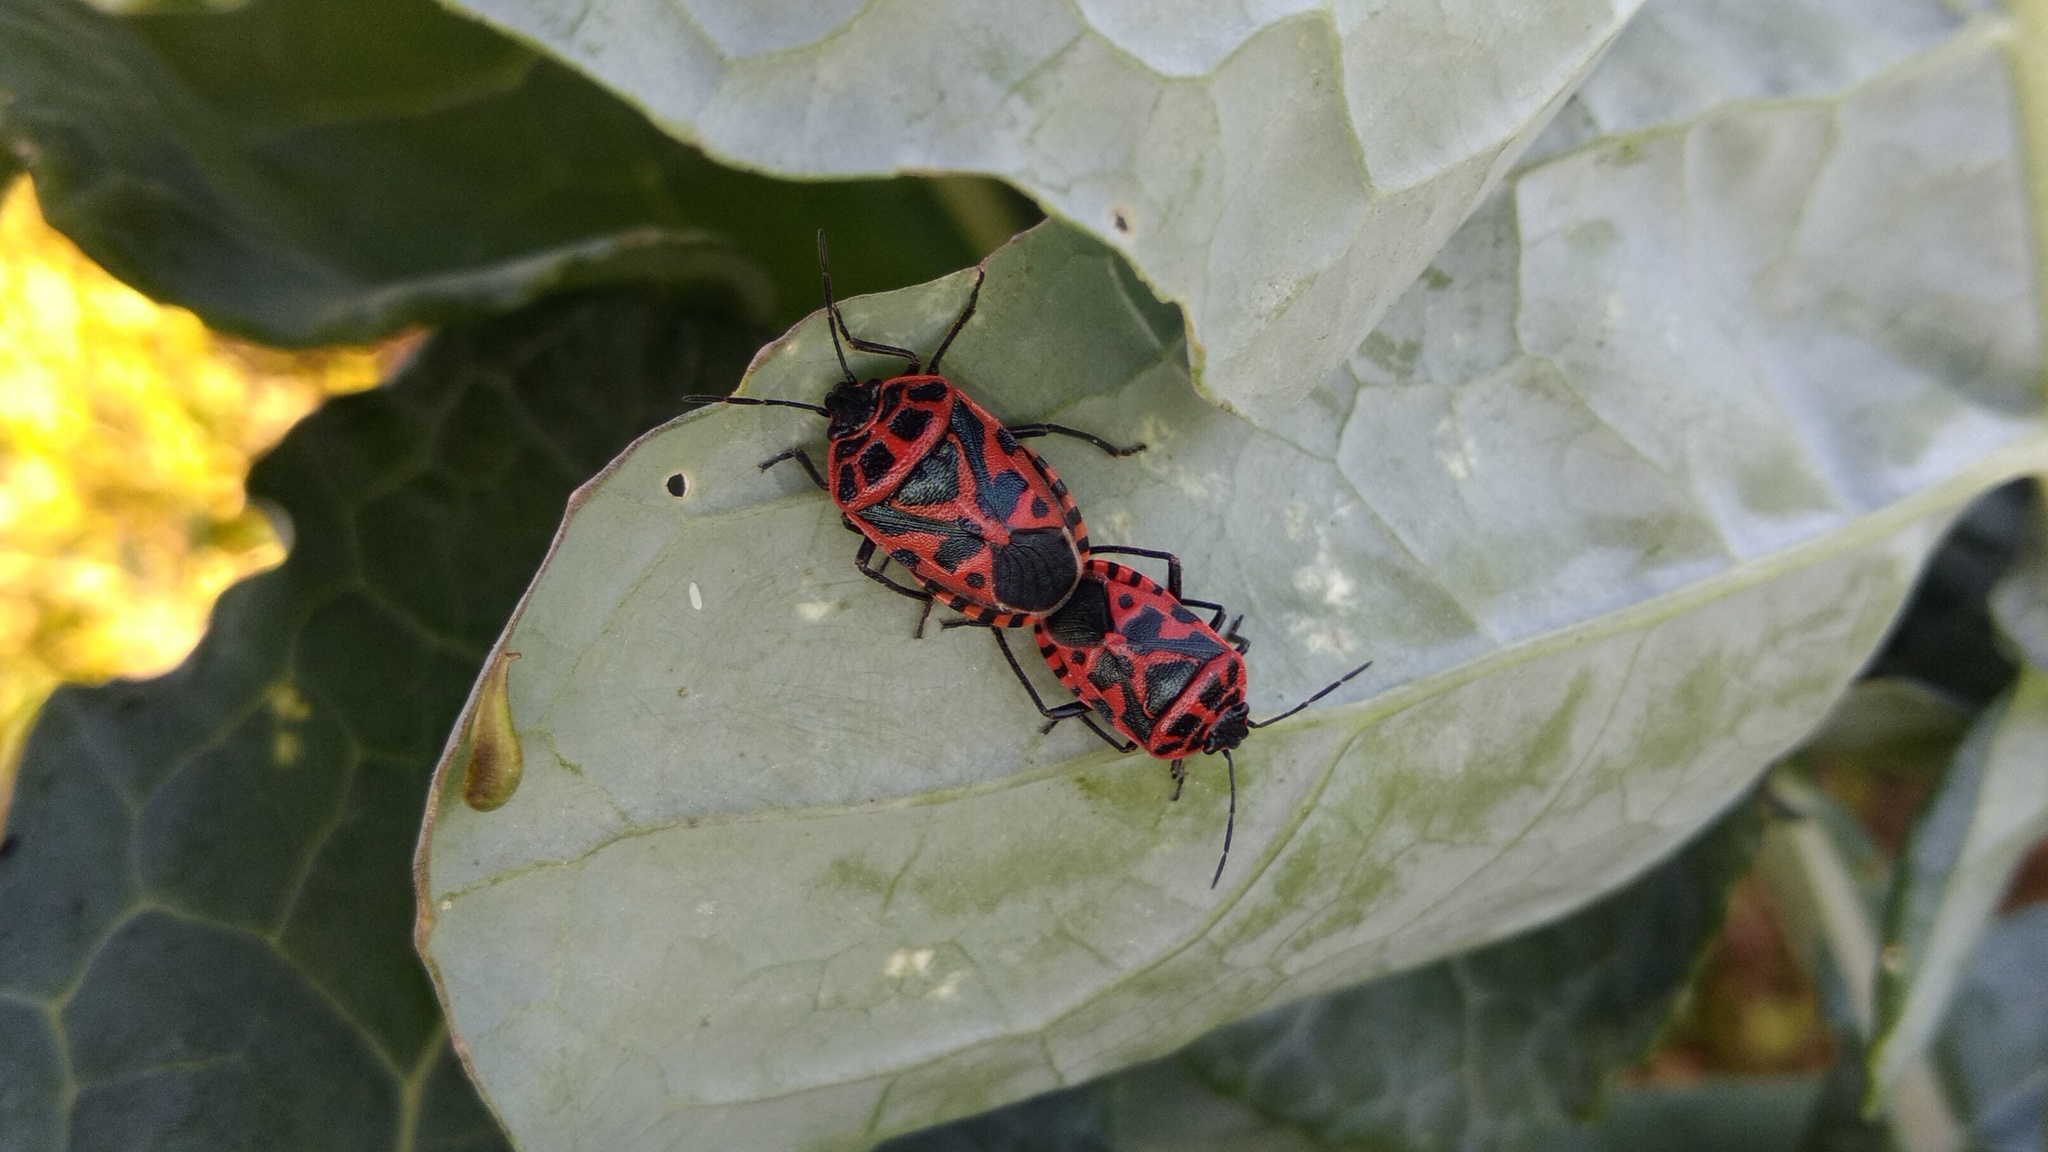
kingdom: Animalia
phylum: Arthropoda
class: Insecta
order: Hemiptera
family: Pentatomidae
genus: Eurydema
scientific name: Eurydema ventralis
